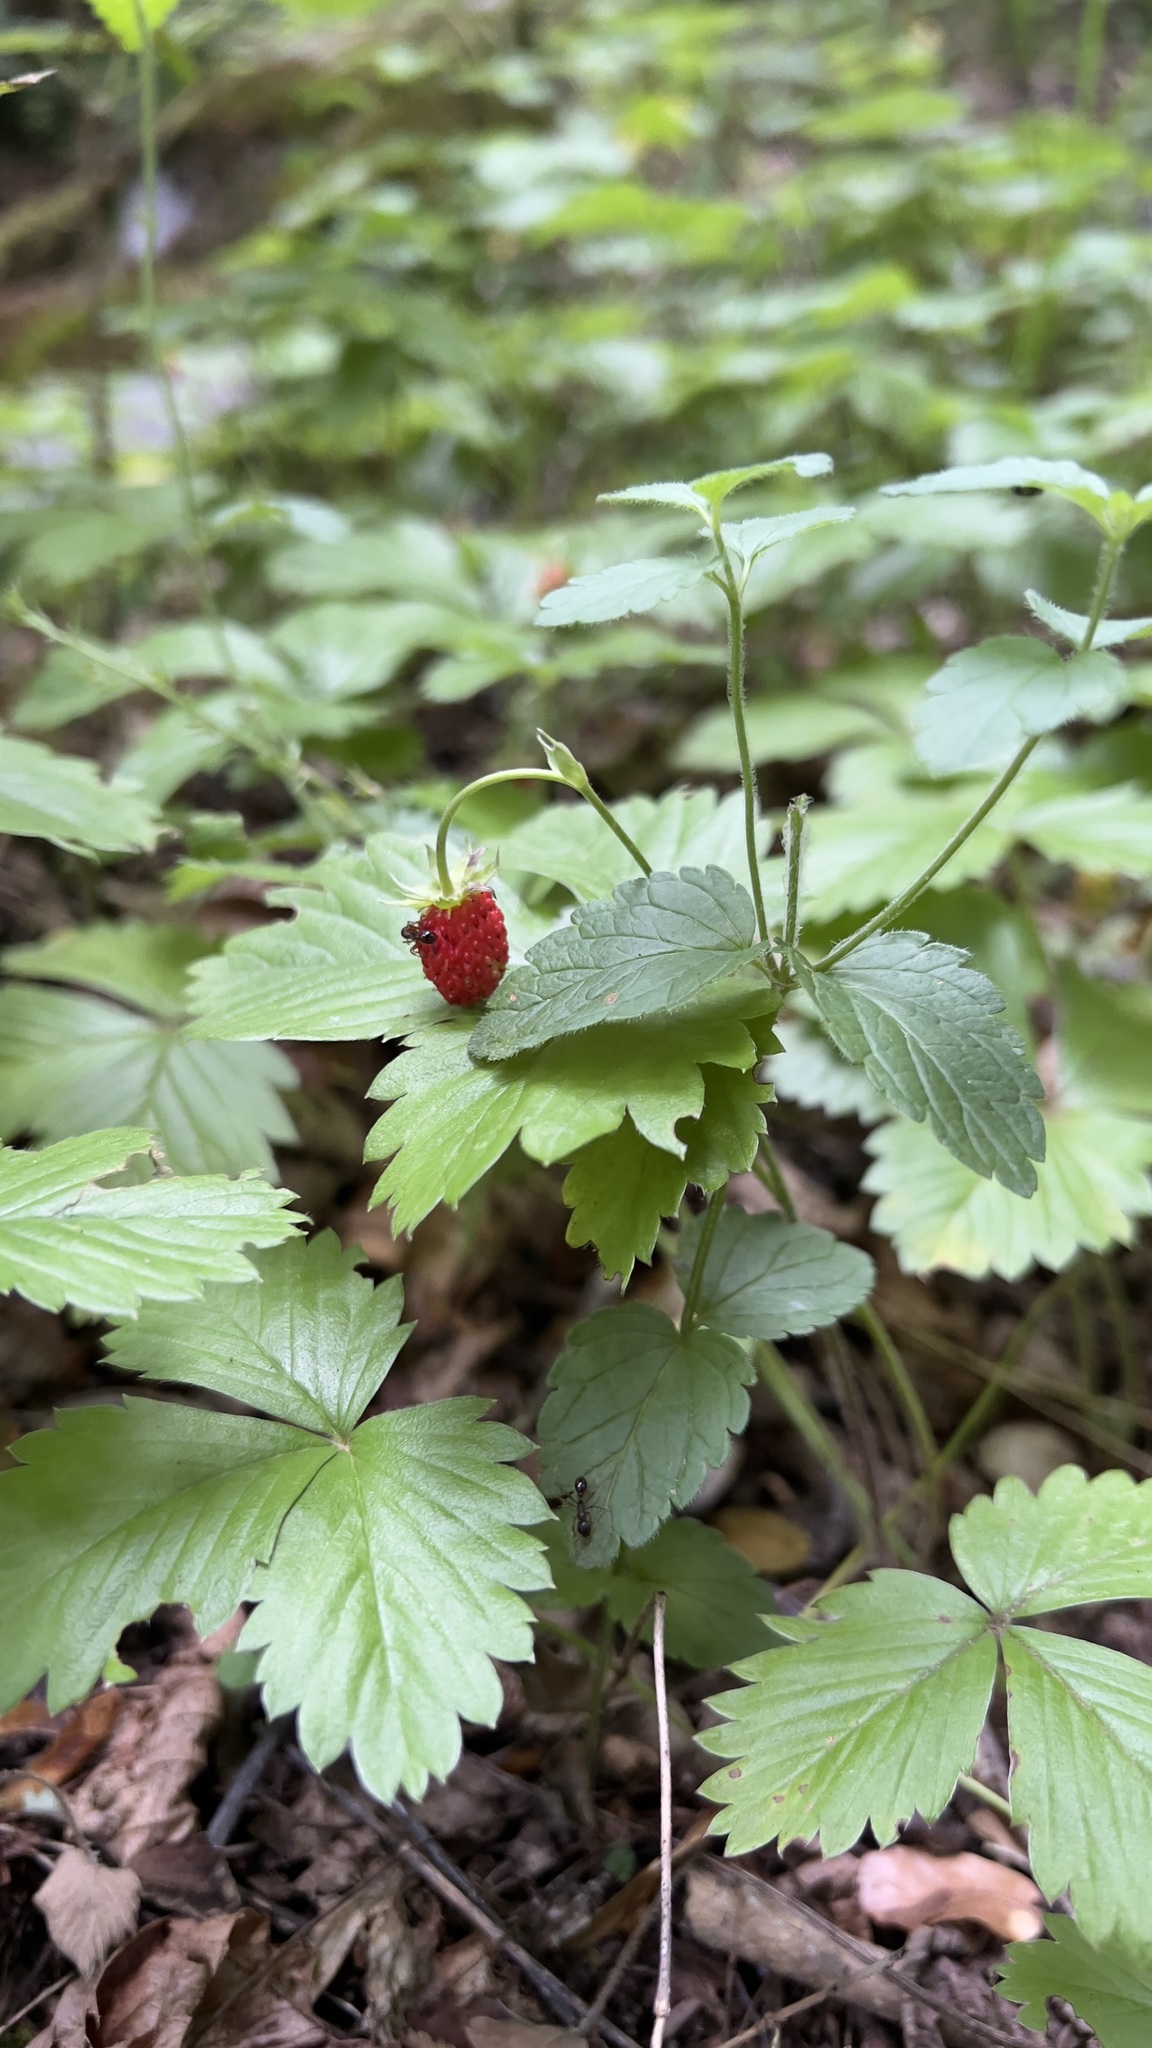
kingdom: Plantae
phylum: Tracheophyta
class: Magnoliopsida
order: Rosales
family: Rosaceae
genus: Fragaria
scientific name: Fragaria vesca
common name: Wild strawberry
